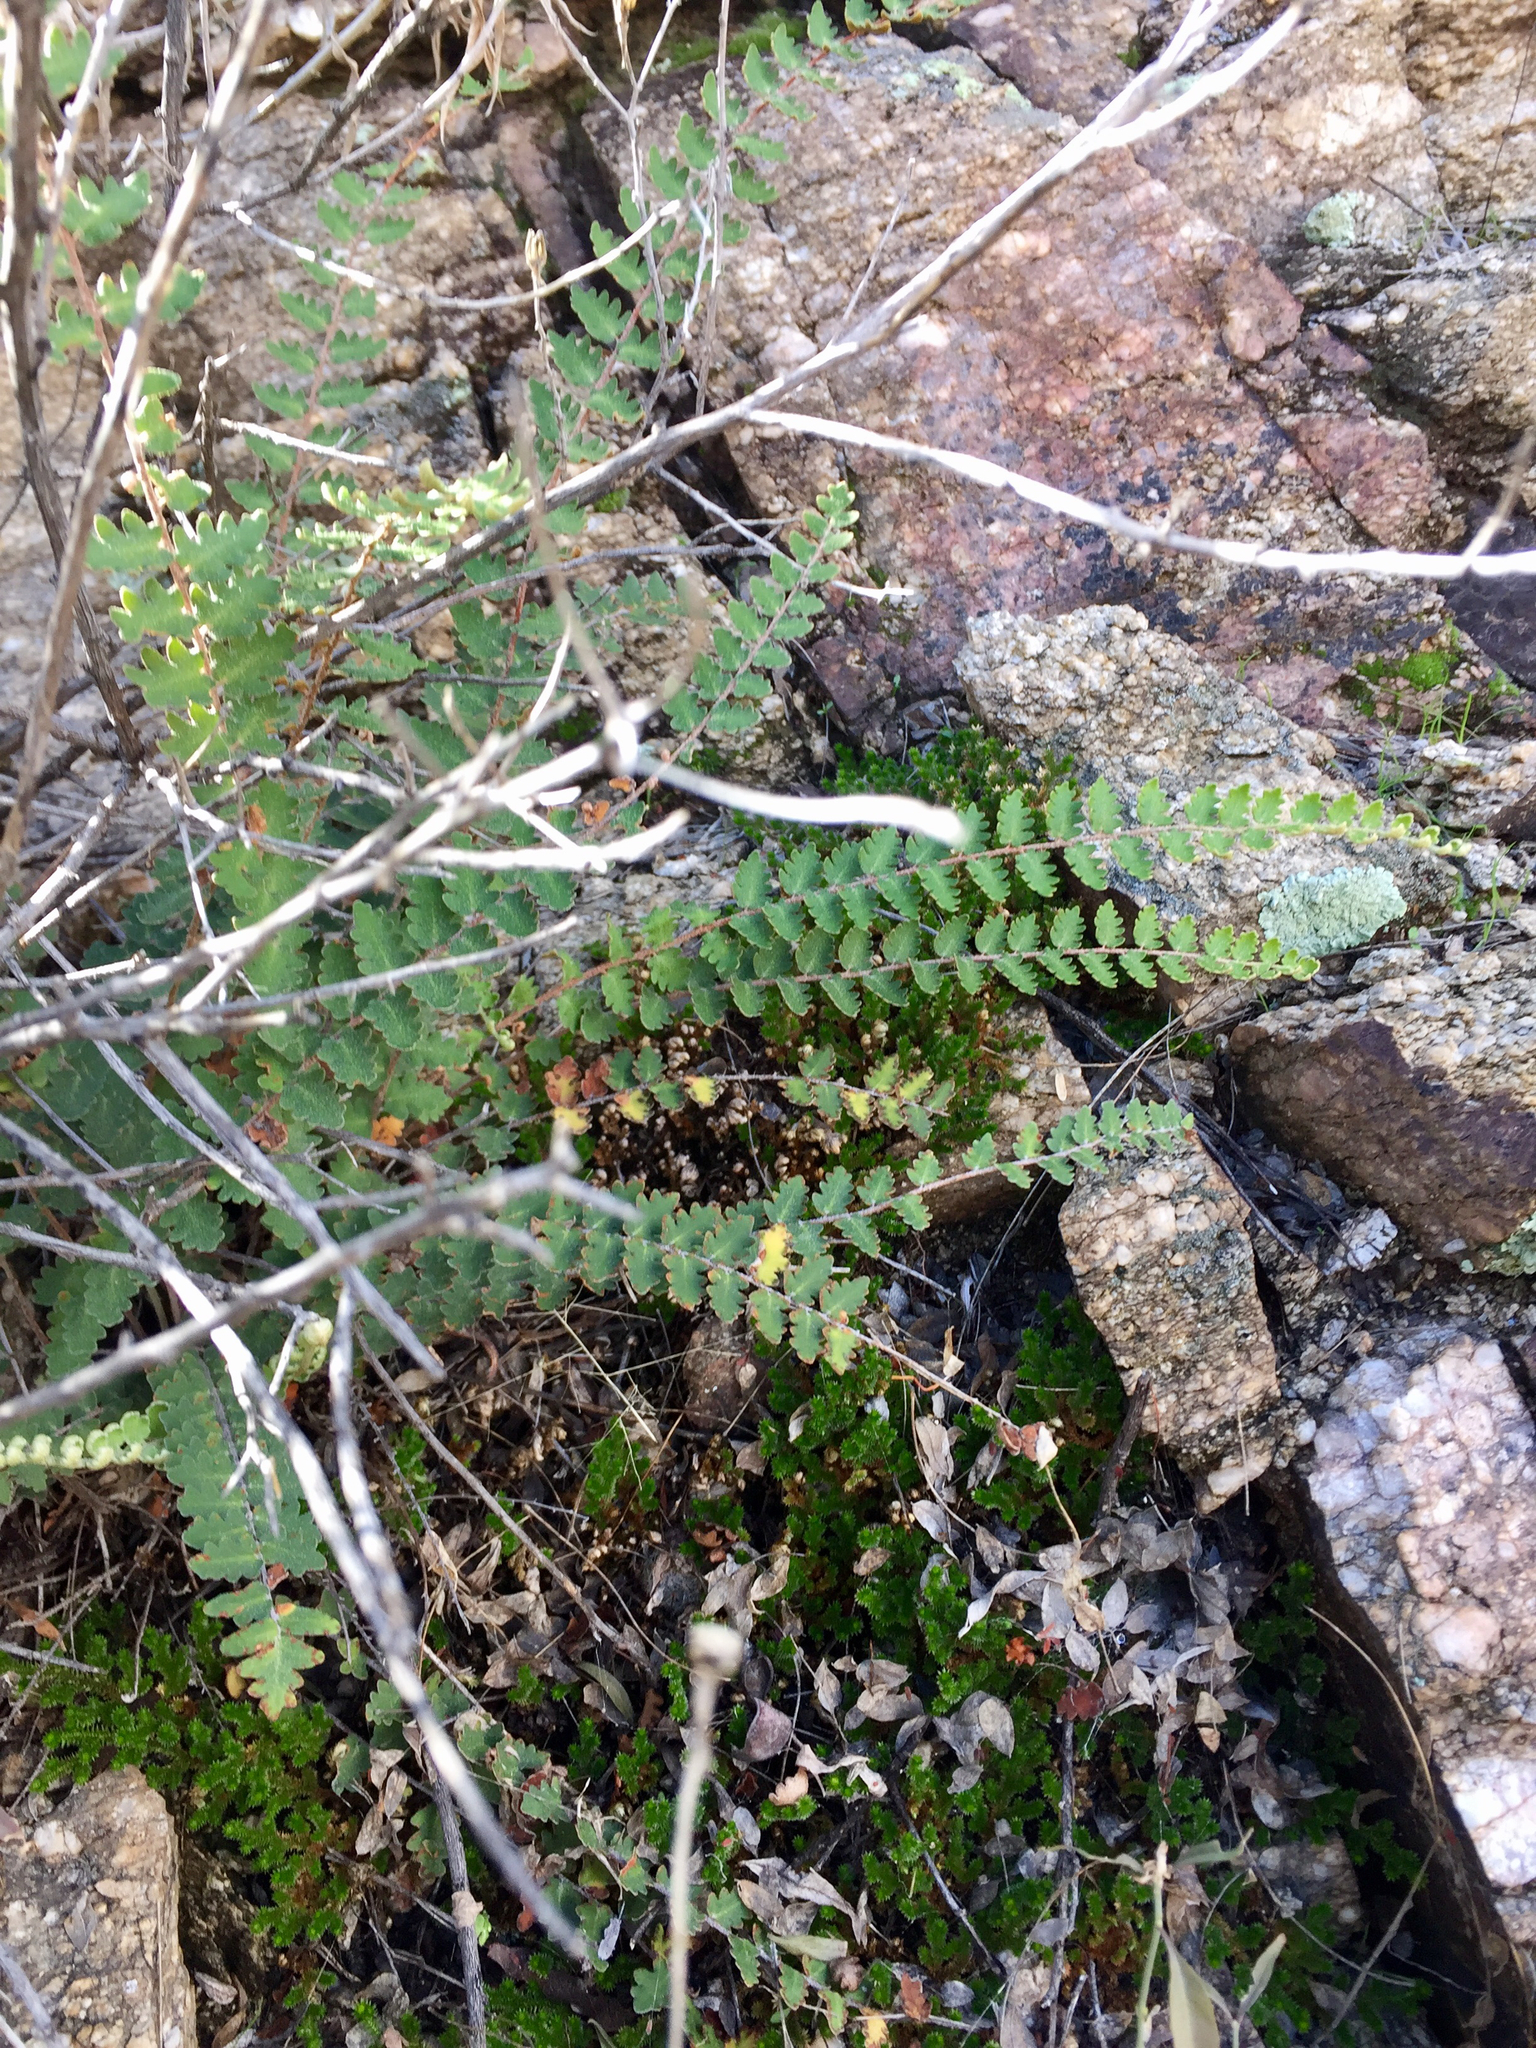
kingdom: Plantae
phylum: Tracheophyta
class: Polypodiopsida
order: Polypodiales
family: Pteridaceae
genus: Astrolepis
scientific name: Astrolepis sinuata
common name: Wavy scaly cloakfern
